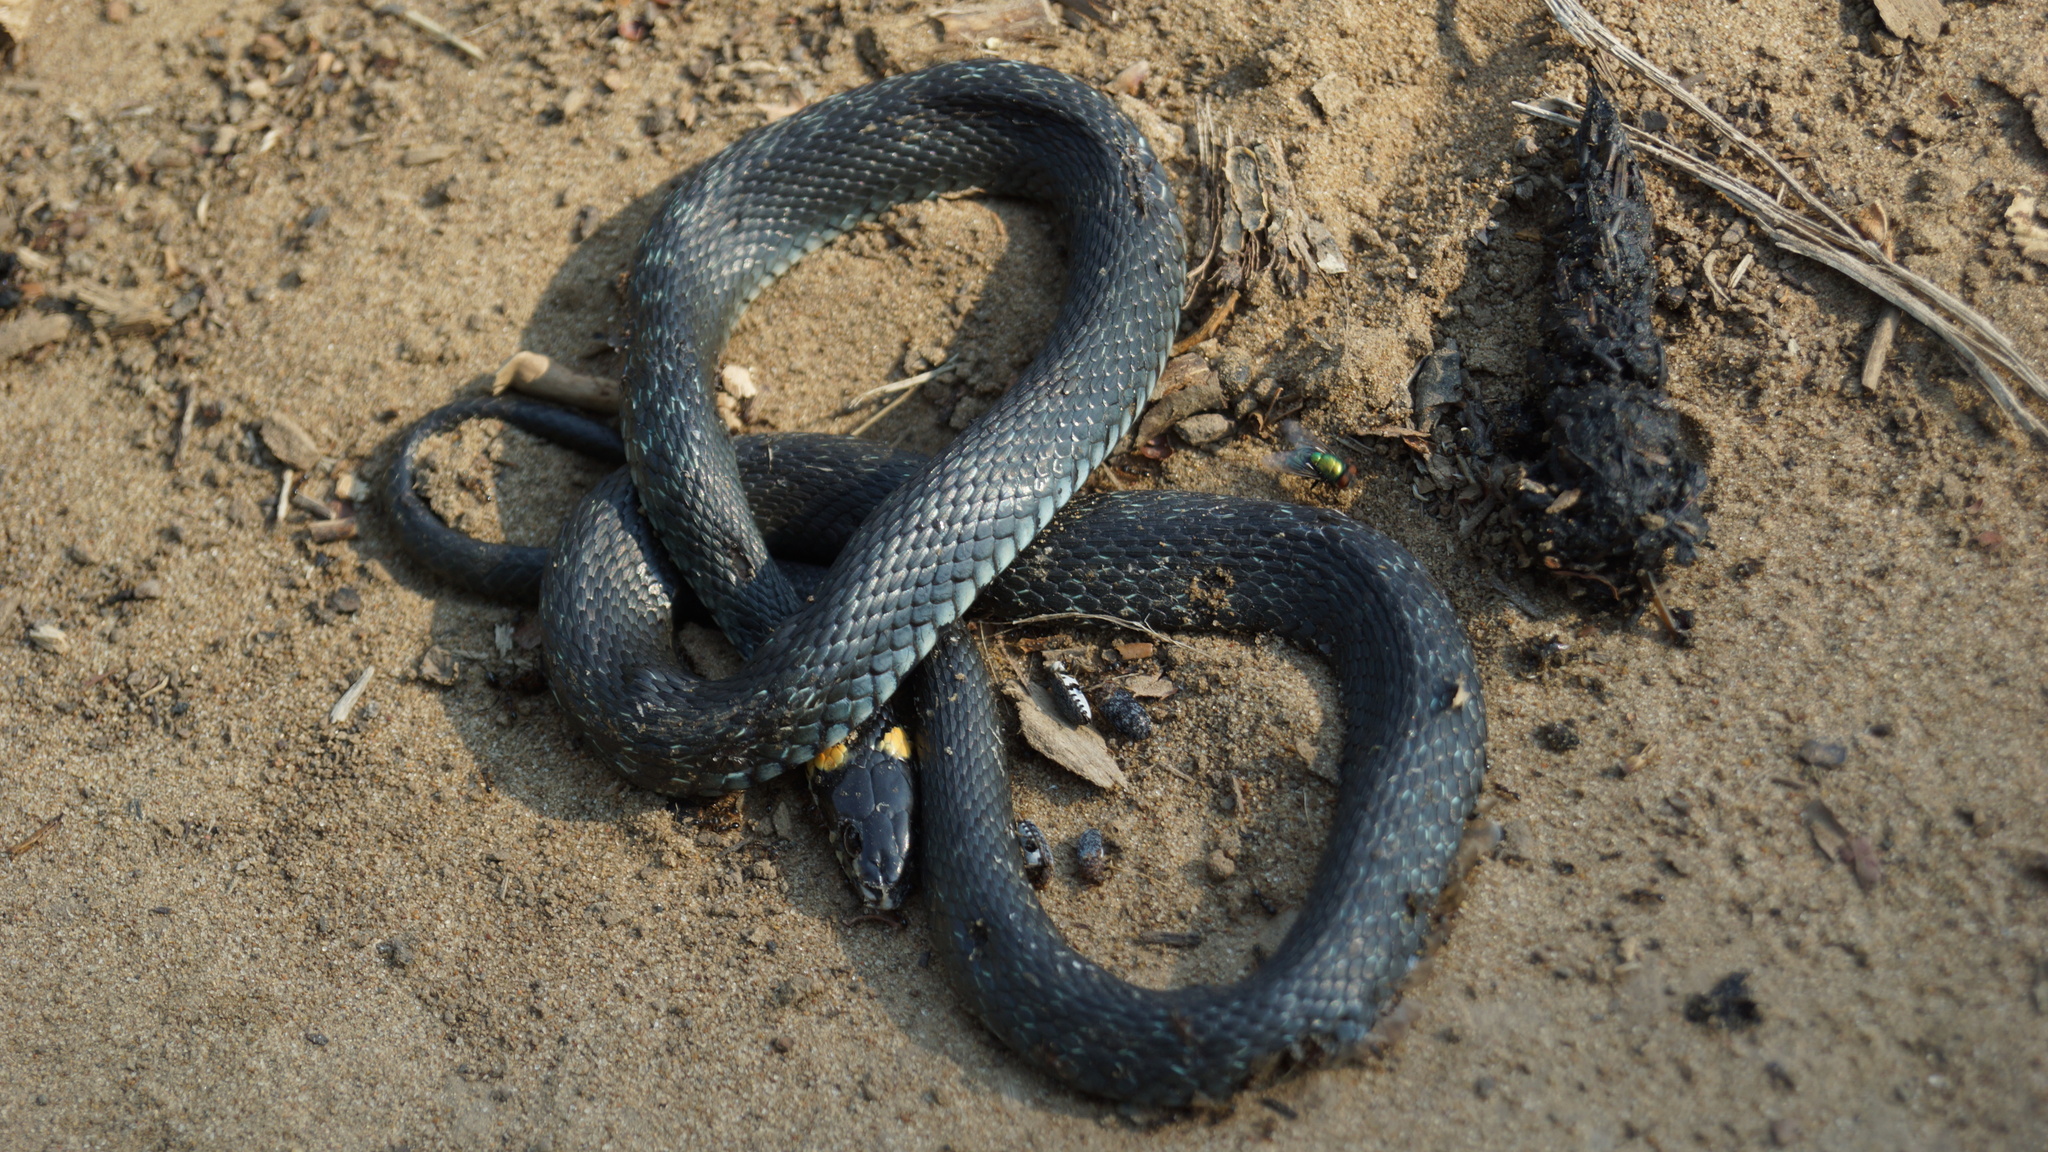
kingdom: Animalia
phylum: Chordata
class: Squamata
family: Colubridae
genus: Natrix
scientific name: Natrix natrix
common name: Grass snake
